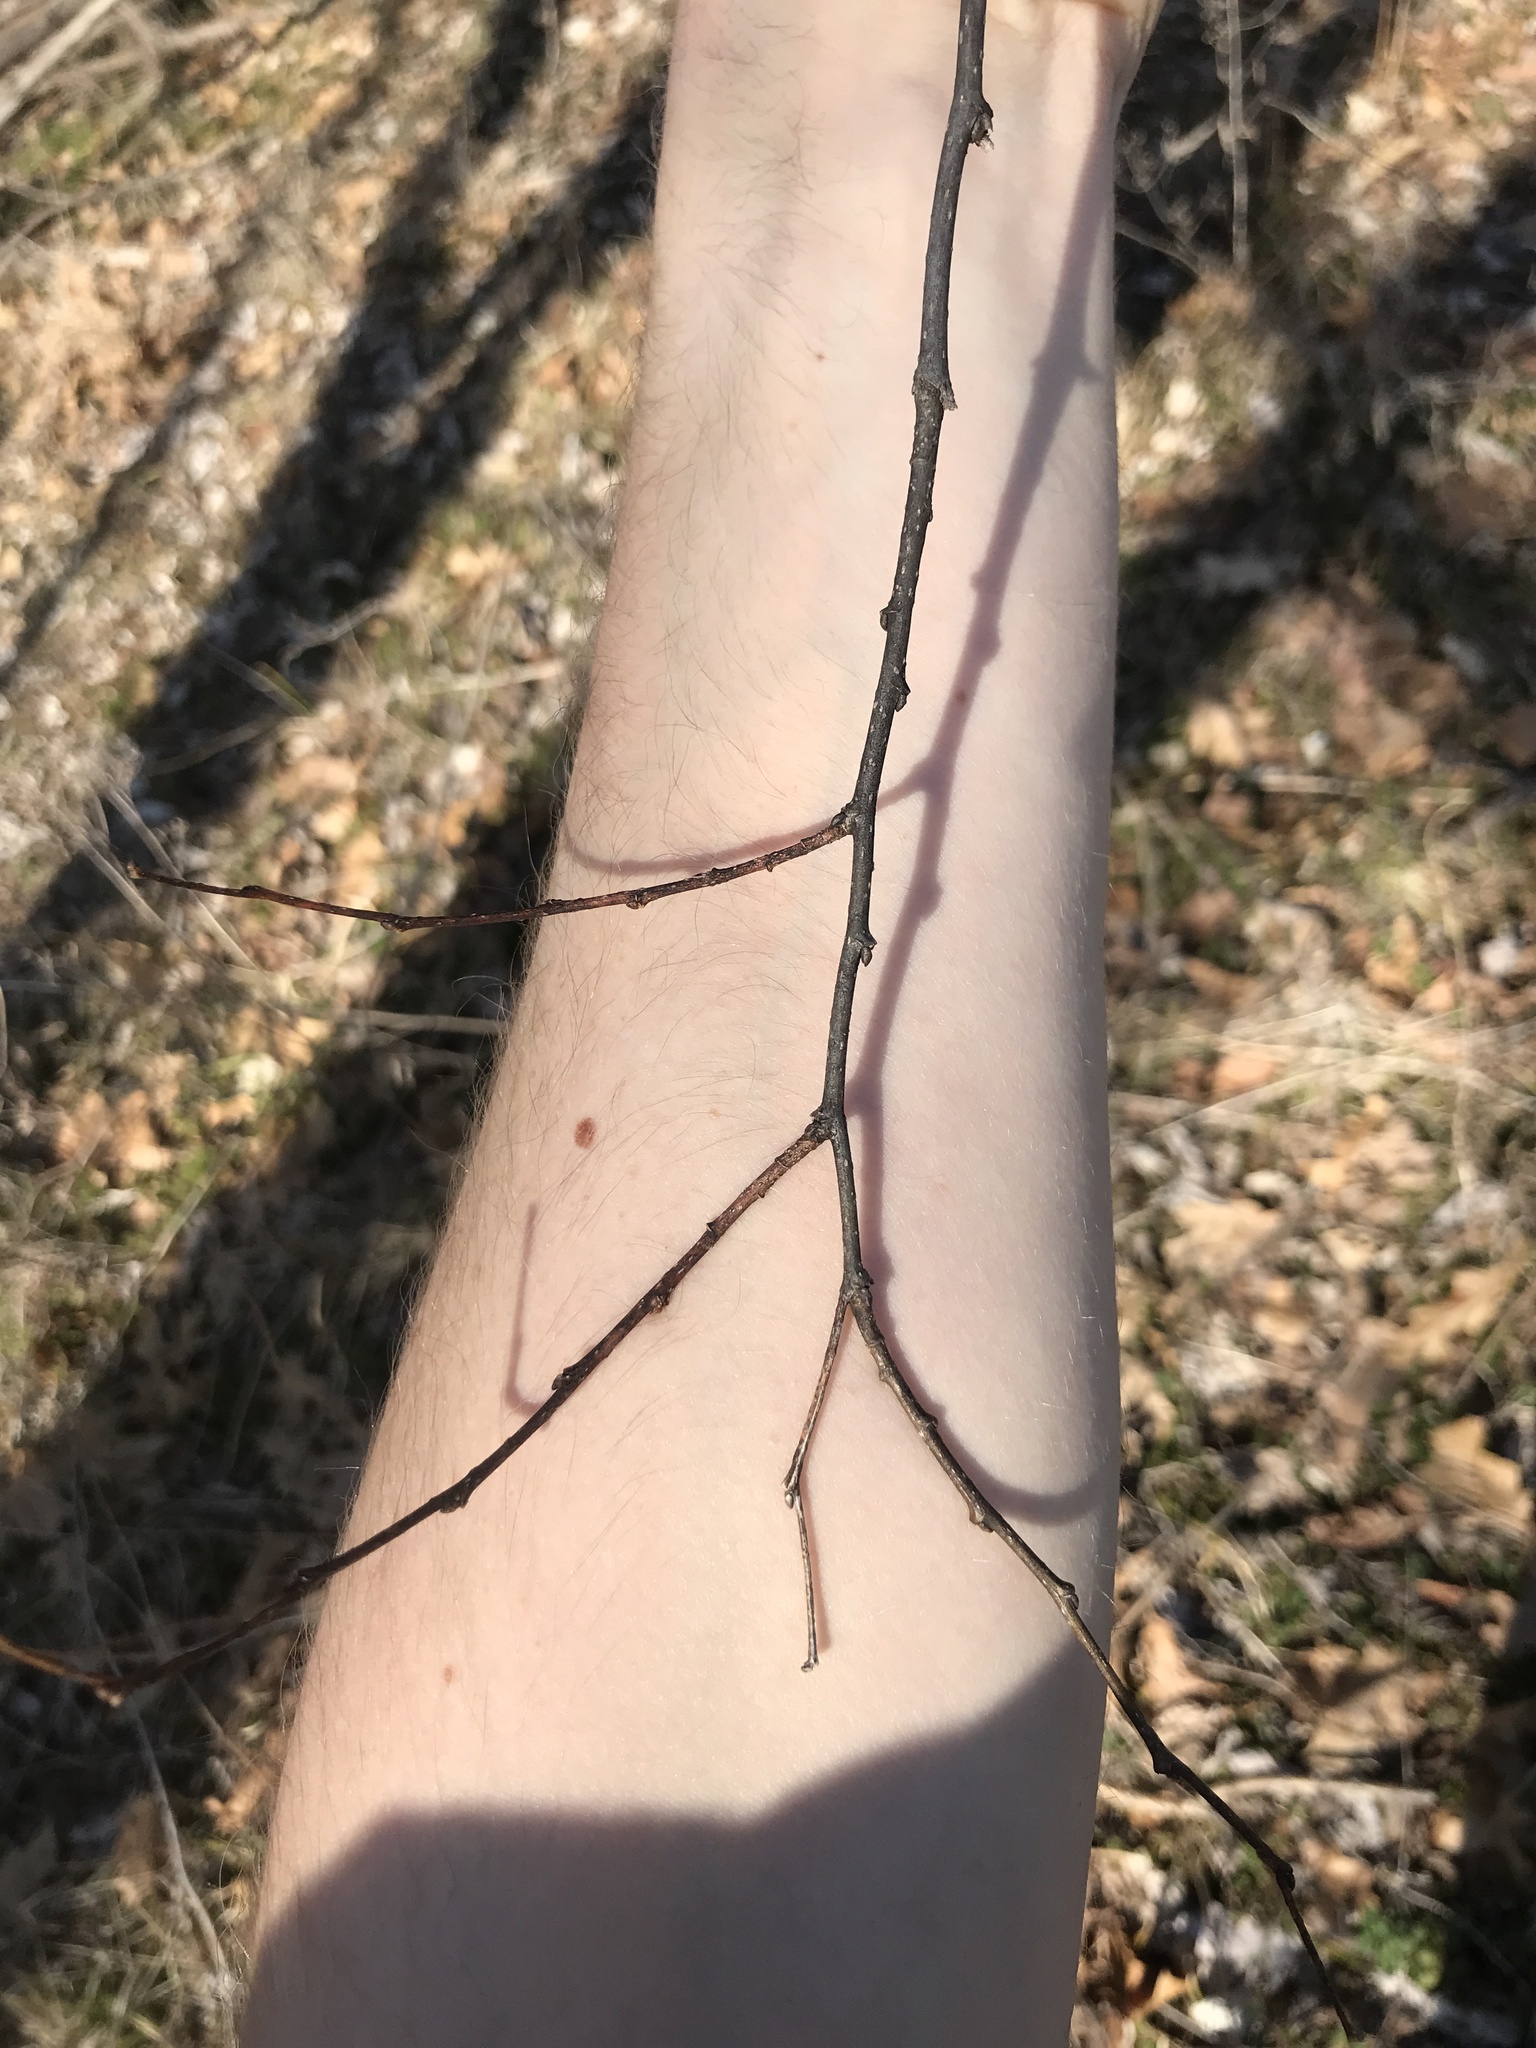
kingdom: Plantae
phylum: Tracheophyta
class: Magnoliopsida
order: Rosales
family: Cannabaceae
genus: Celtis
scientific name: Celtis occidentalis
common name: Common hackberry
